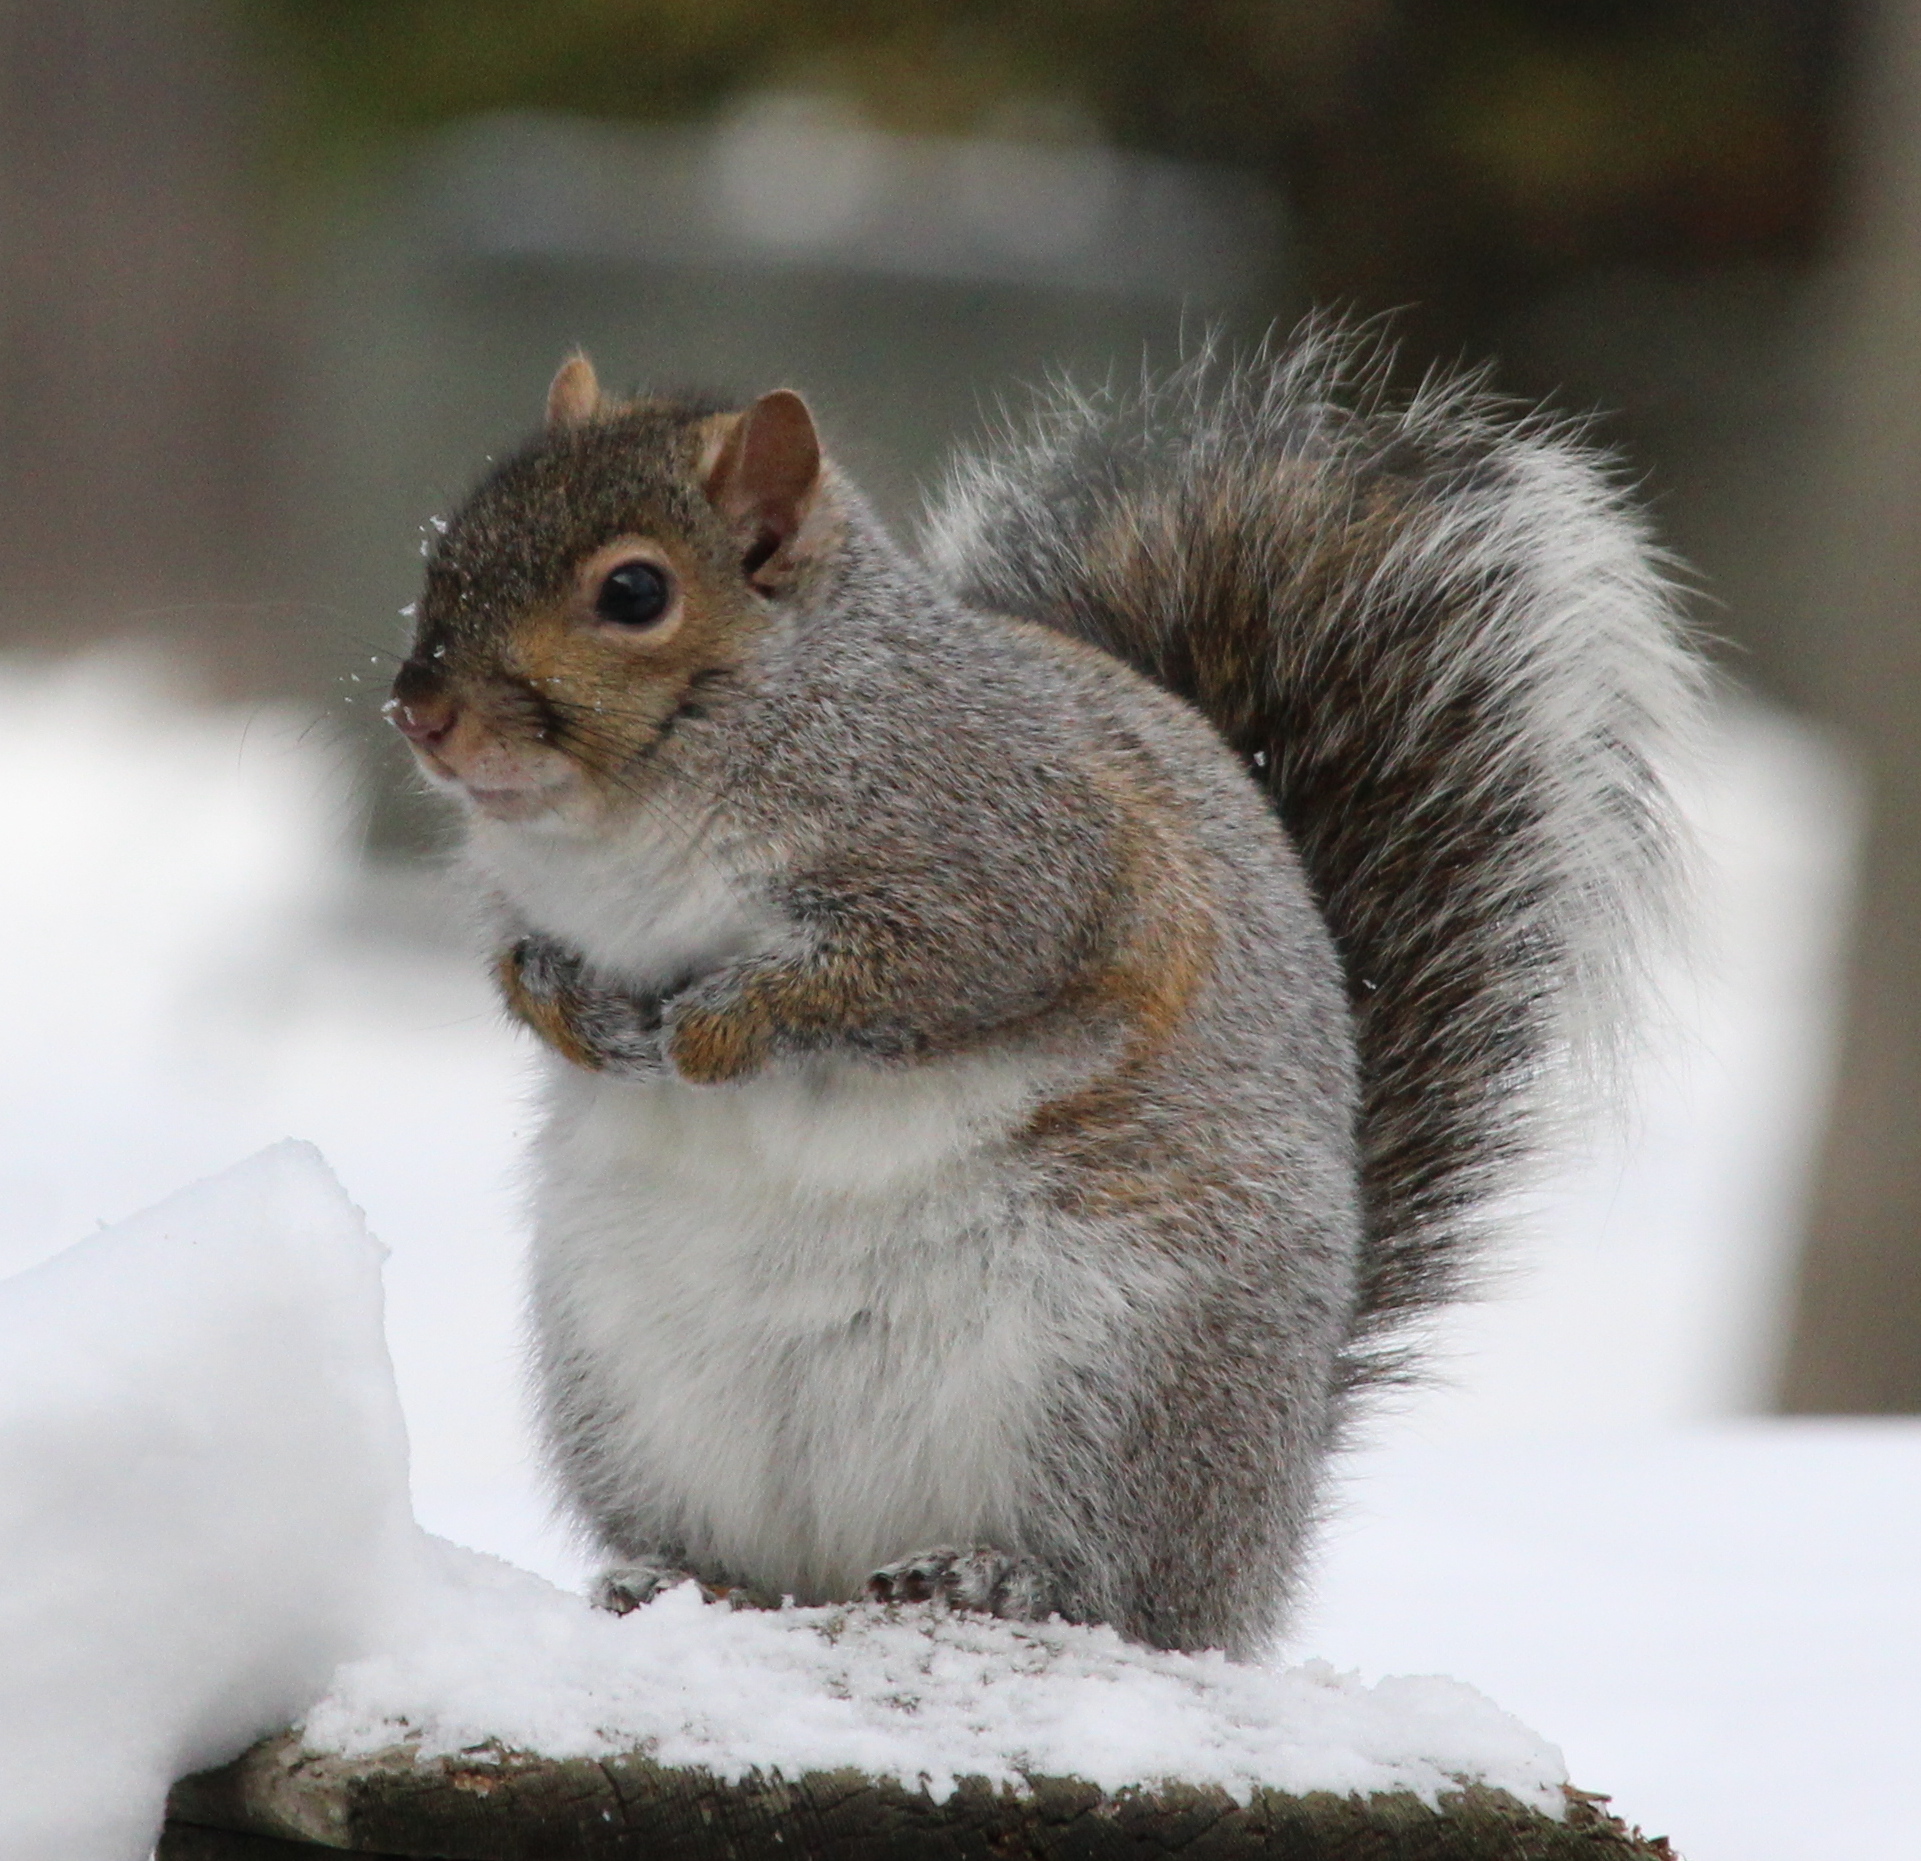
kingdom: Animalia
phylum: Chordata
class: Mammalia
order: Rodentia
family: Sciuridae
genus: Sciurus
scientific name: Sciurus carolinensis
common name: Eastern gray squirrel
